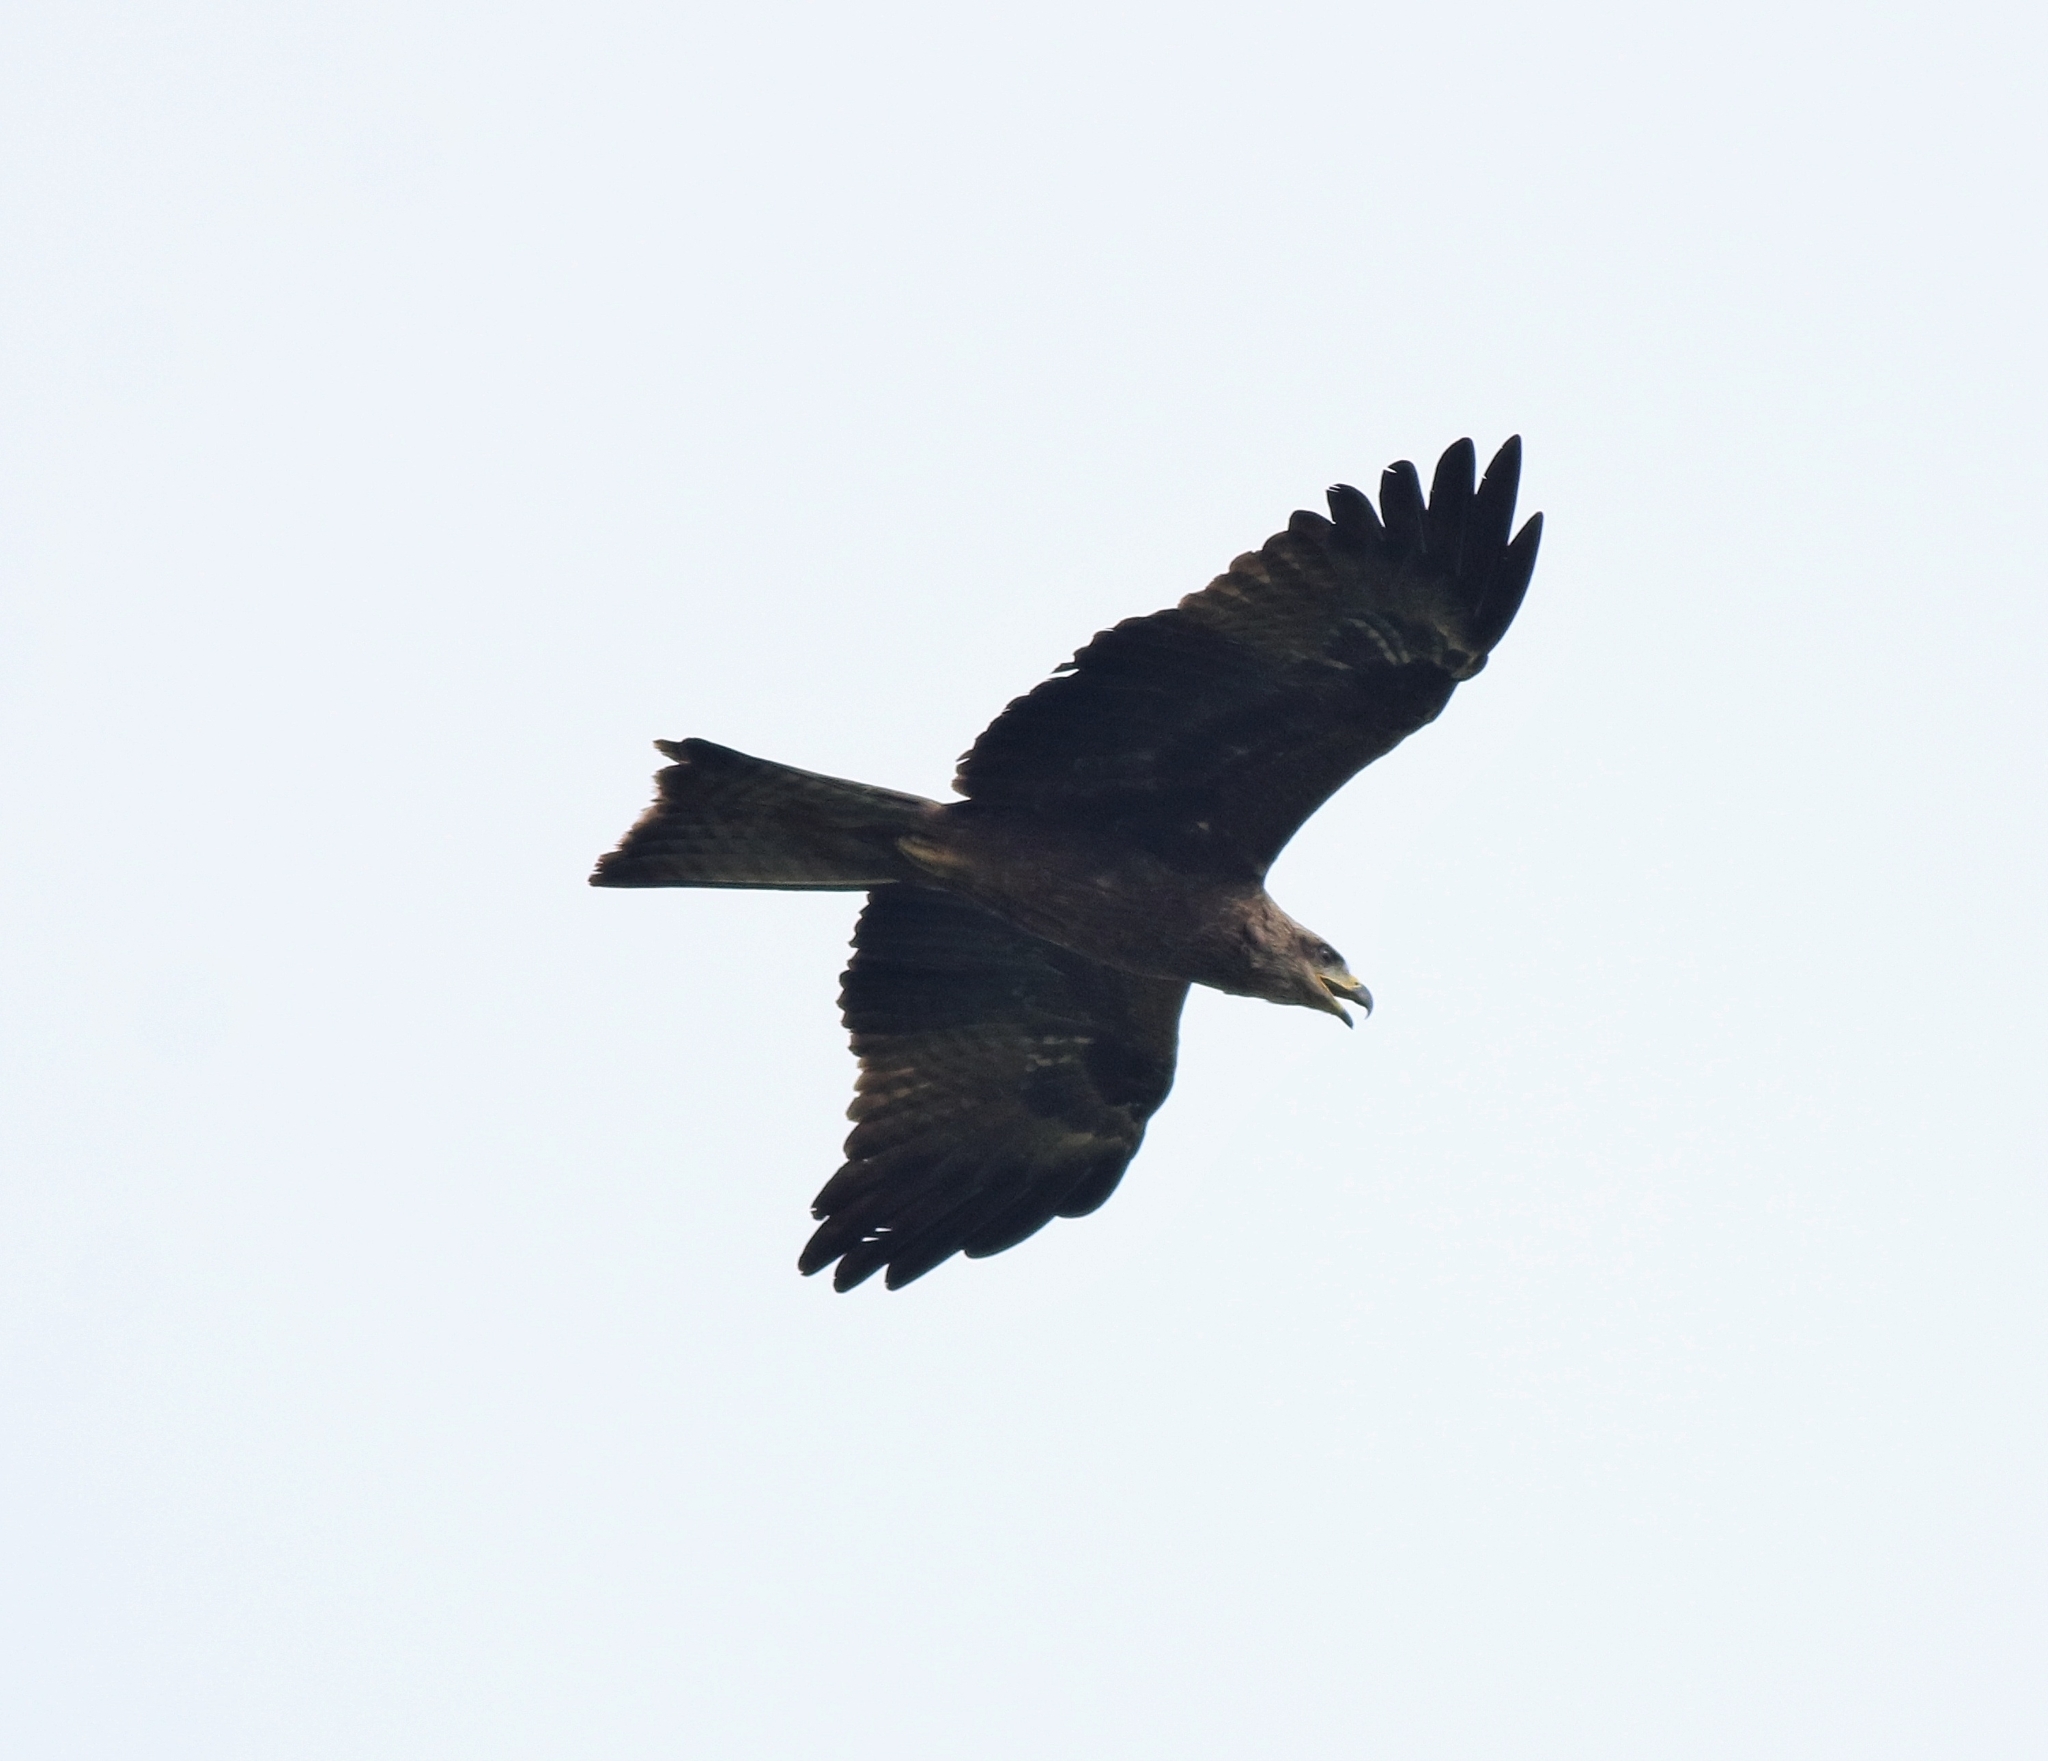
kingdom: Animalia
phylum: Chordata
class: Aves
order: Accipitriformes
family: Accipitridae
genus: Milvus
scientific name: Milvus migrans
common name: Black kite
